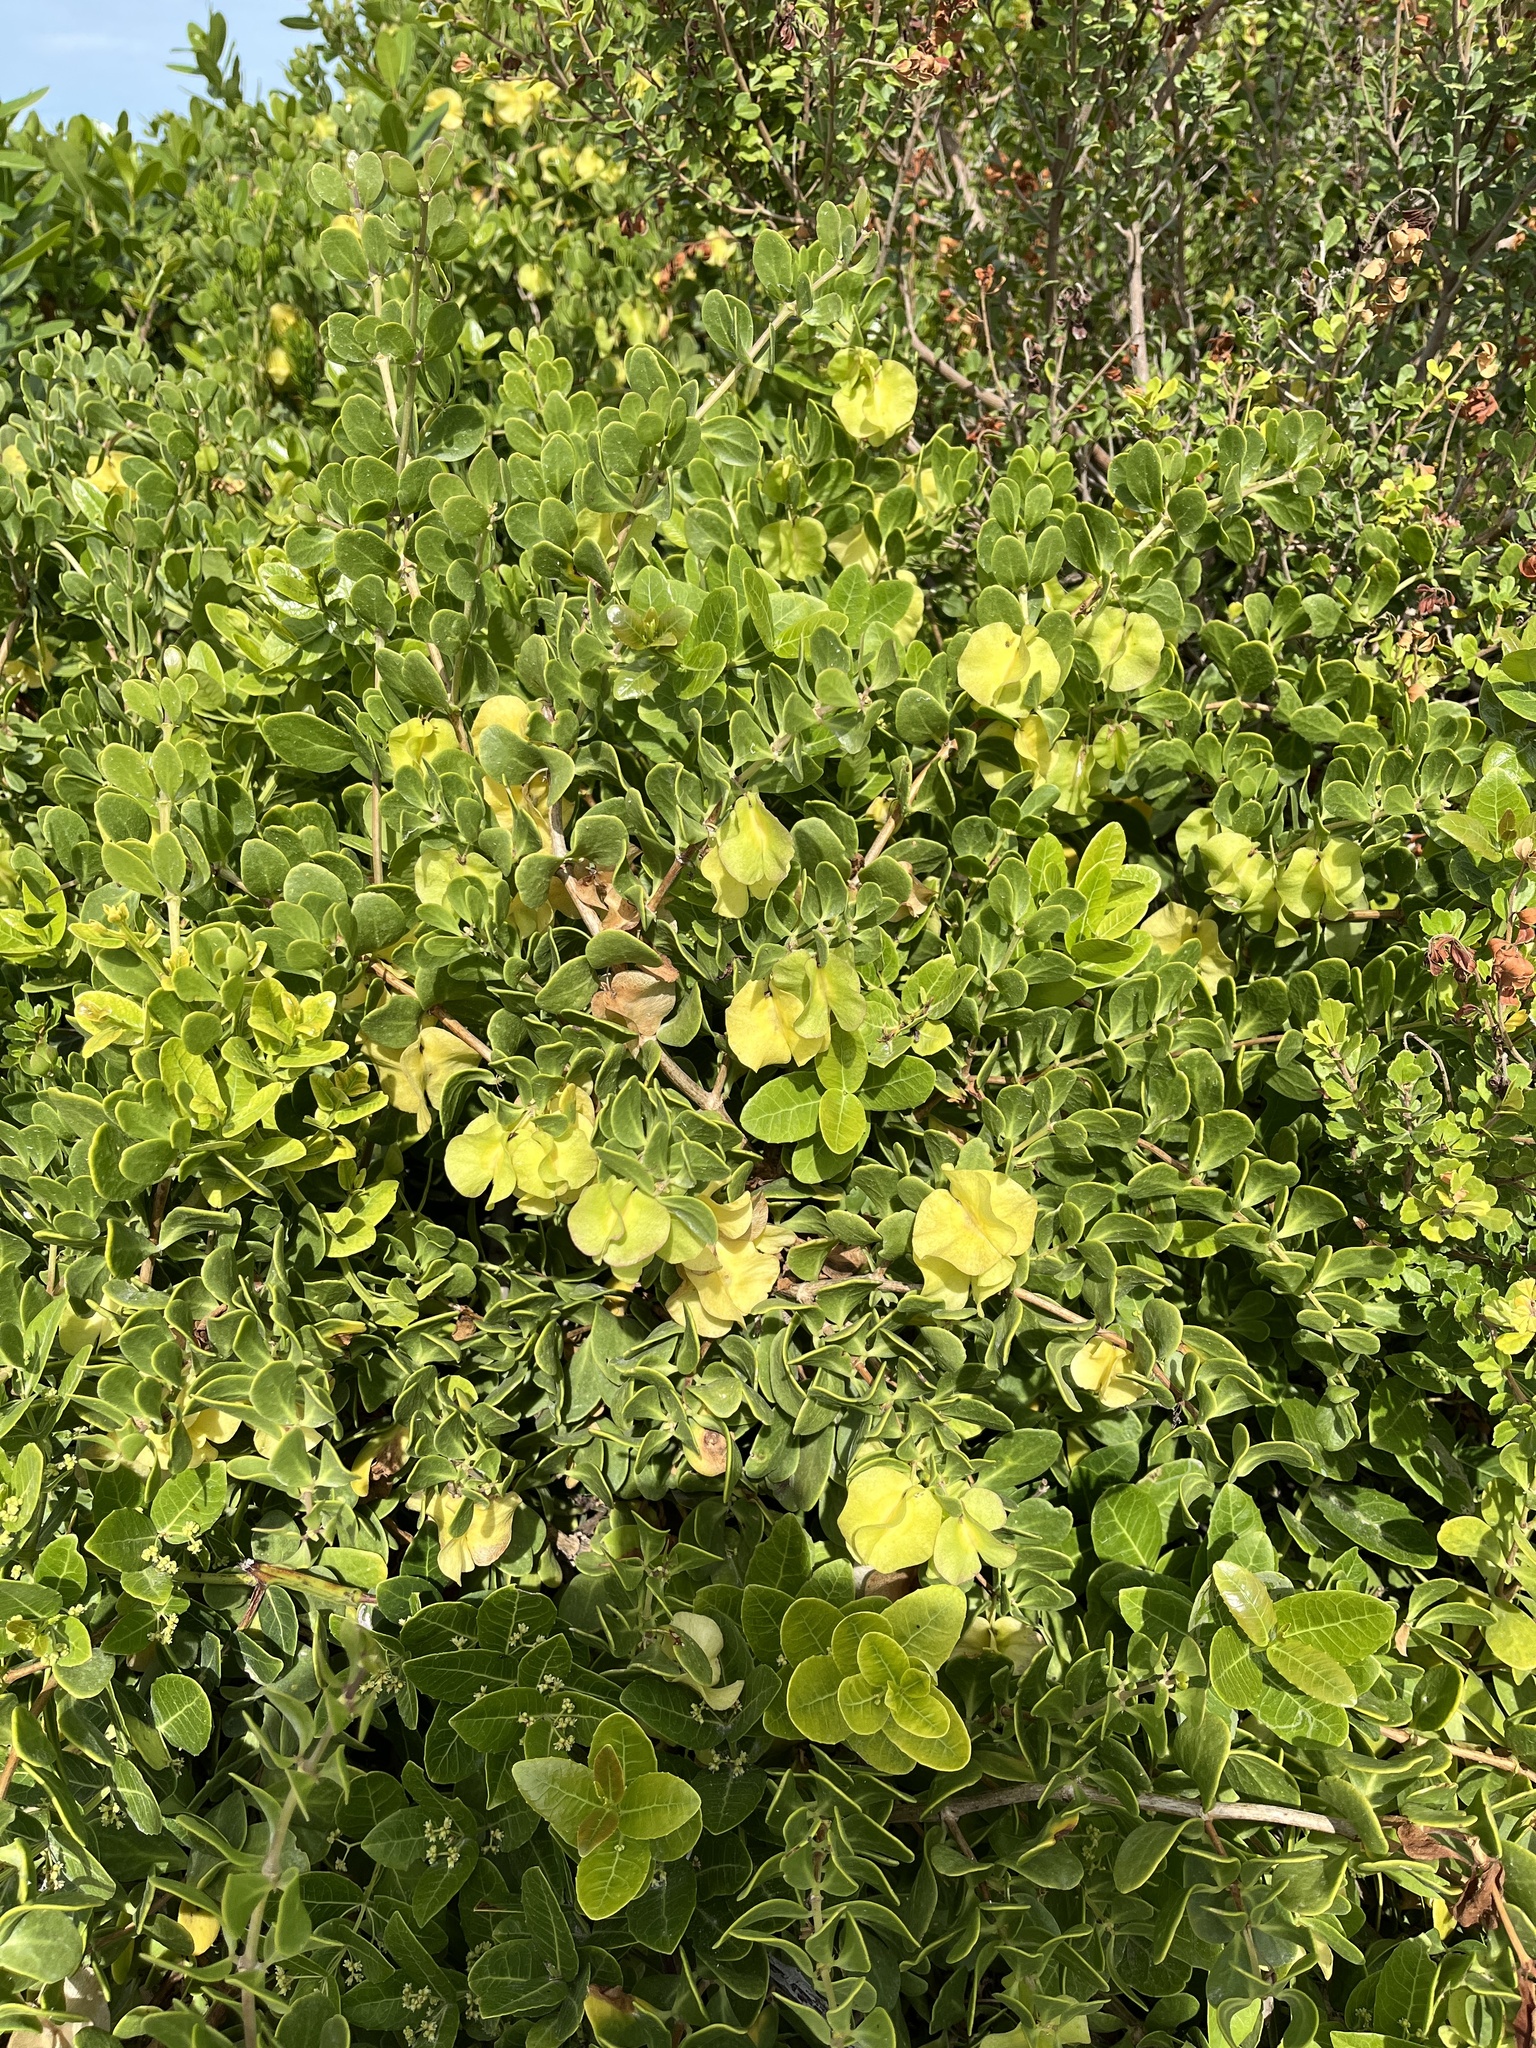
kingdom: Plantae
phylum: Tracheophyta
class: Magnoliopsida
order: Zygophyllales
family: Zygophyllaceae
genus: Roepera
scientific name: Roepera morgsana
